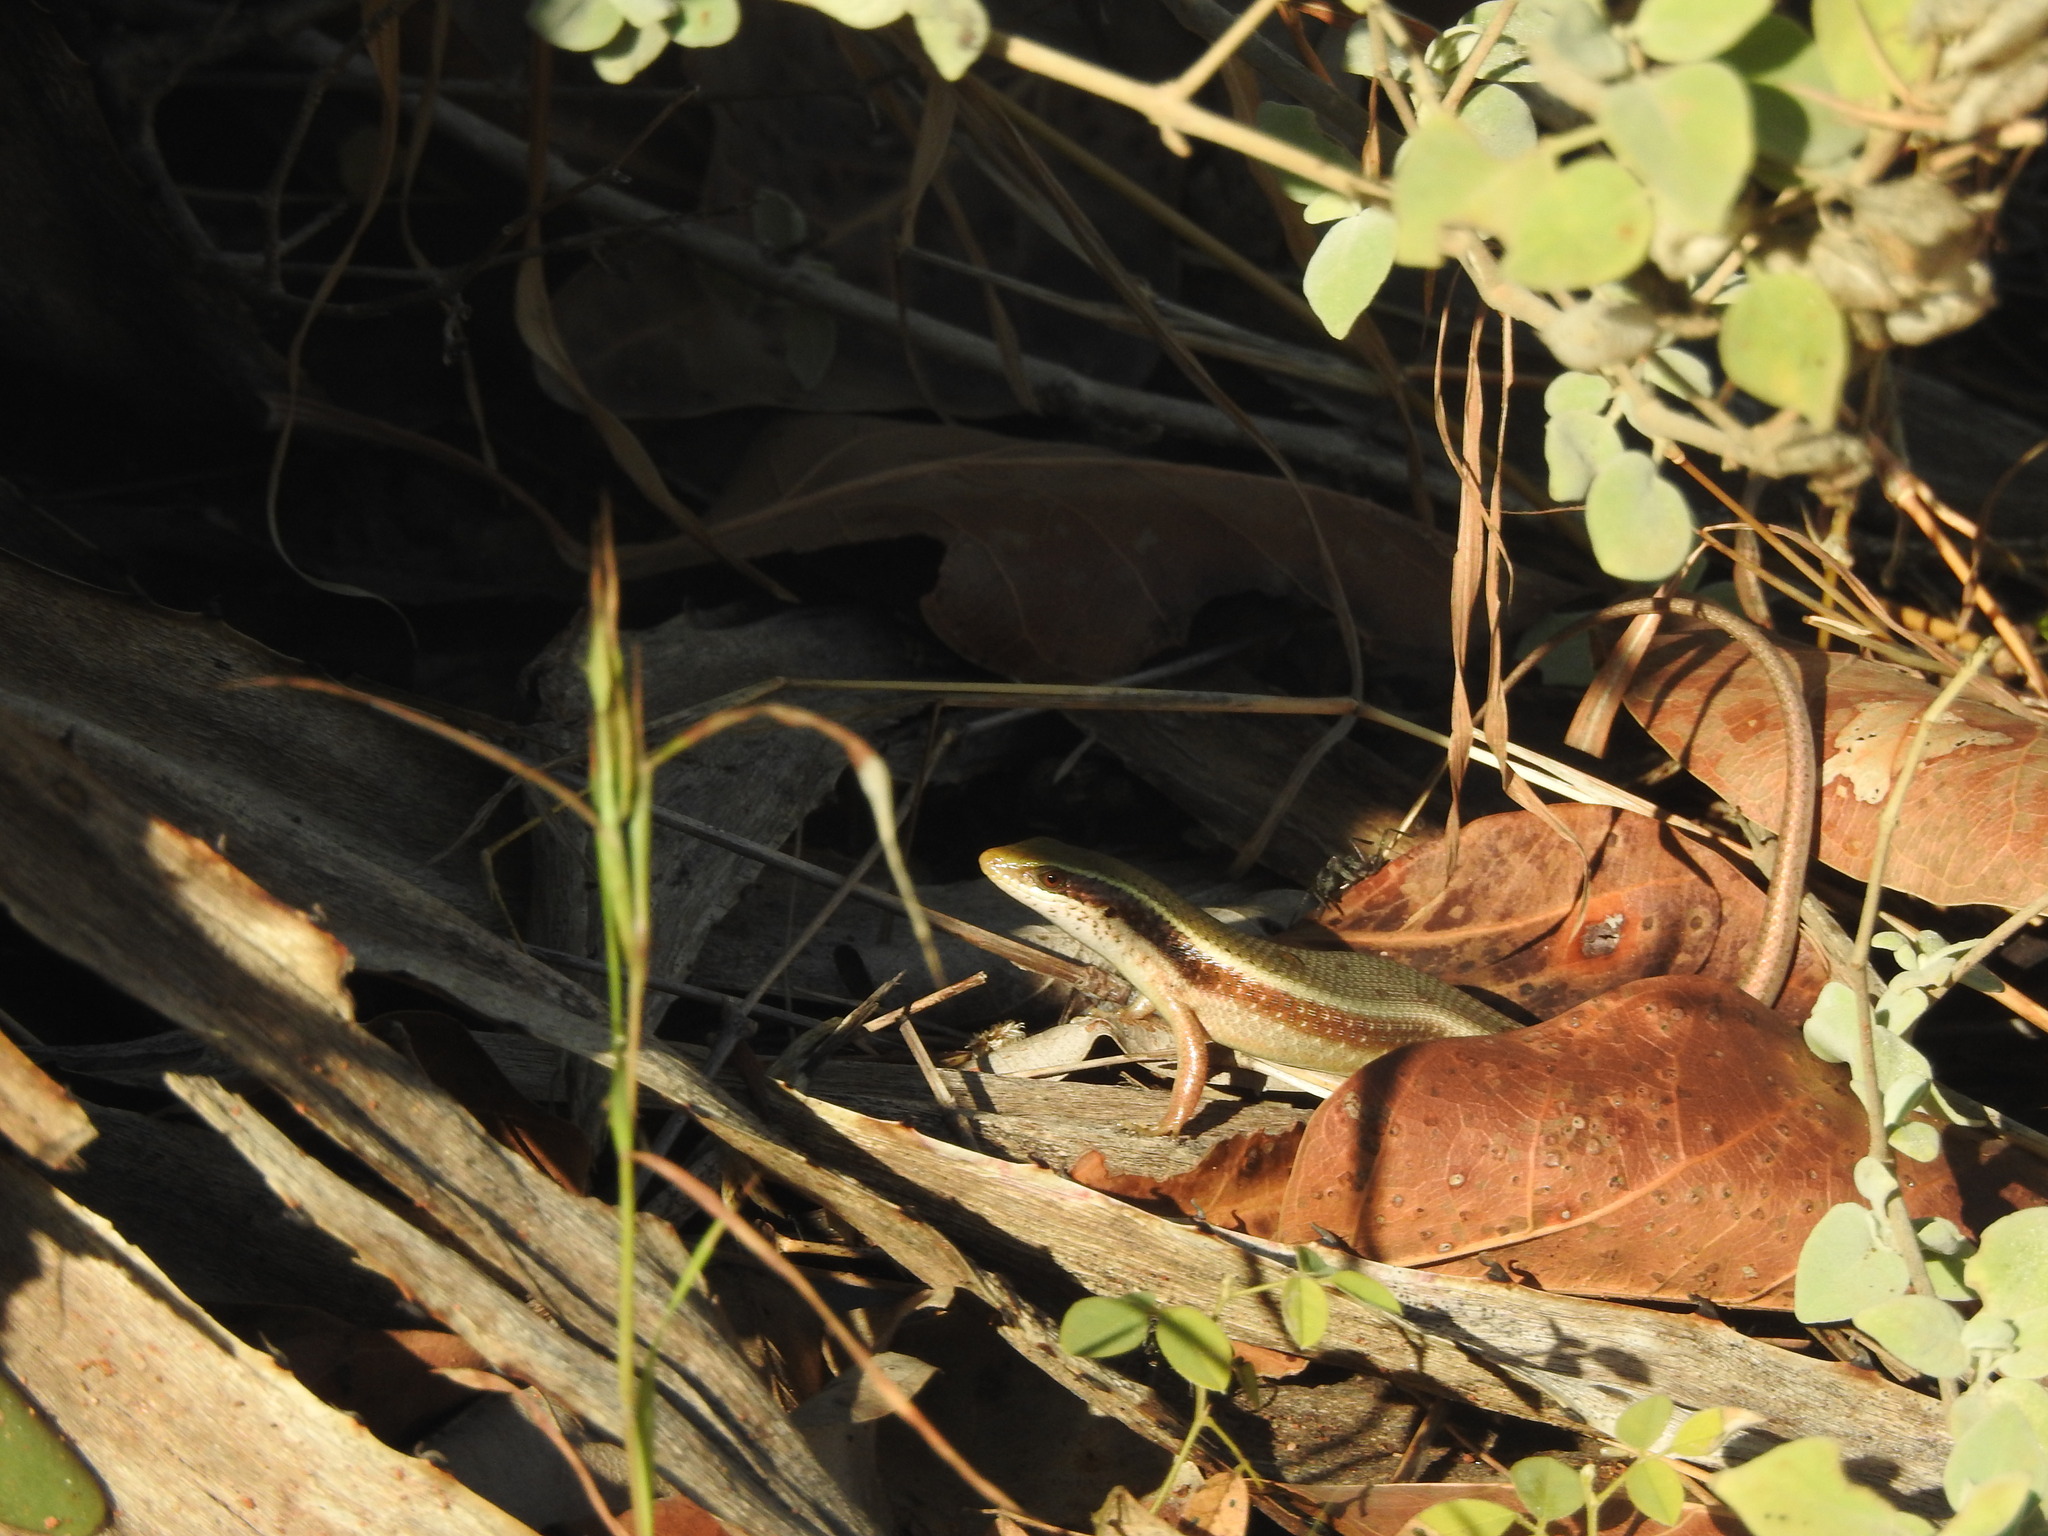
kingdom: Animalia
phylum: Chordata
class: Squamata
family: Scincidae
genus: Eutropis
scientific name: Eutropis carinata
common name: Keeled indian mabuya
